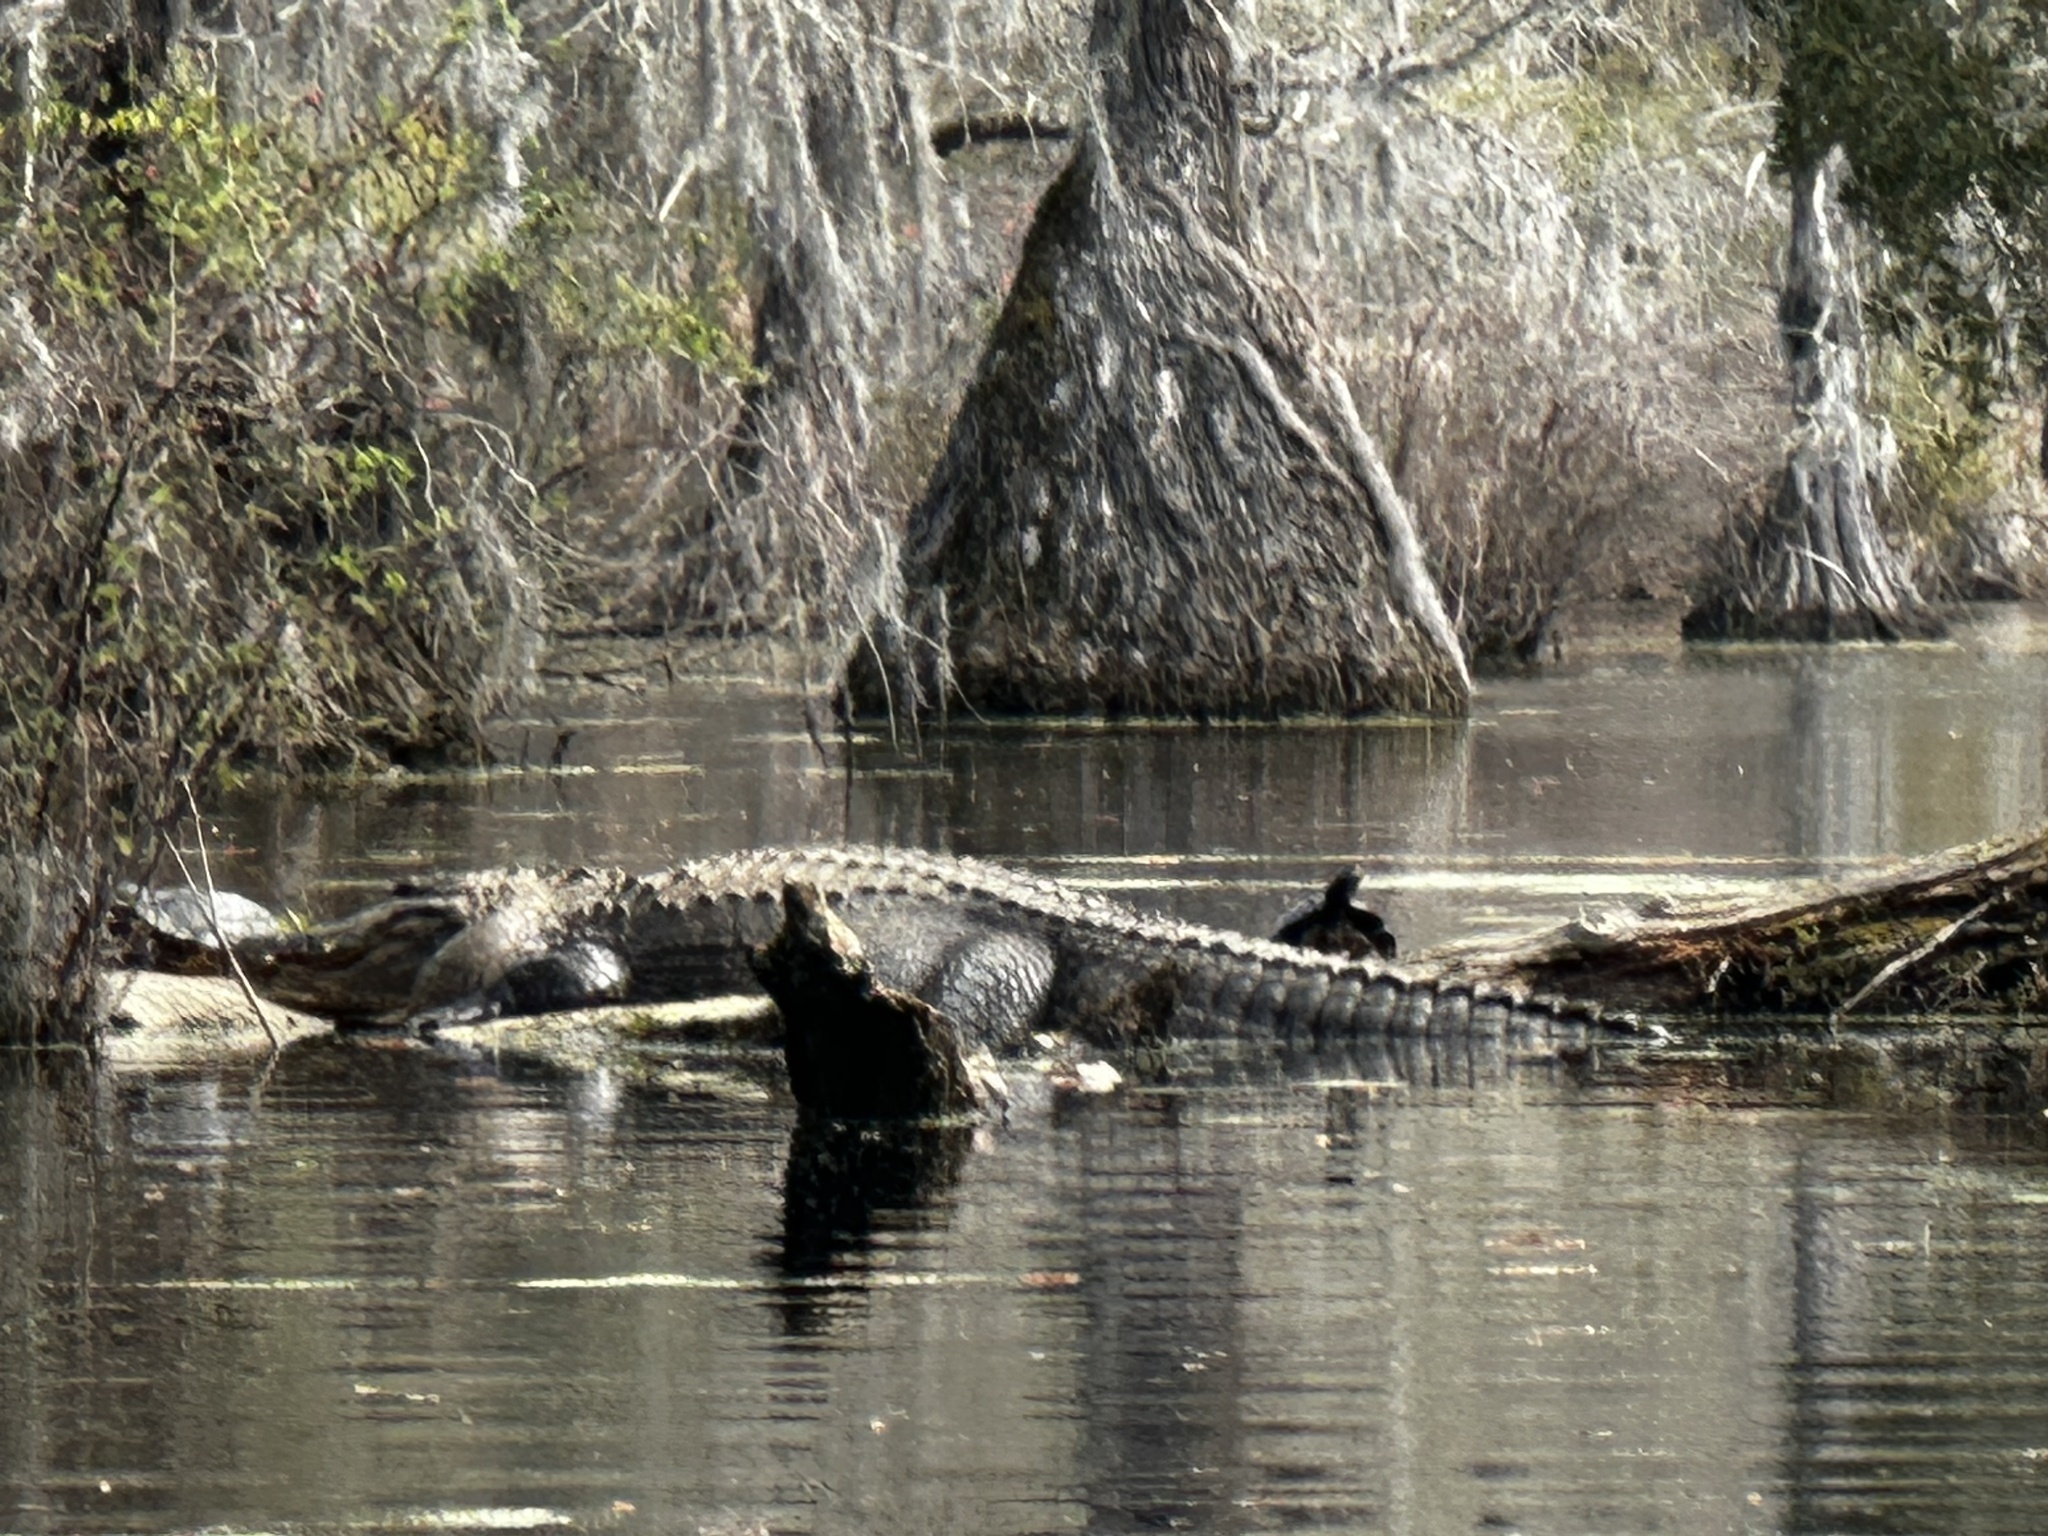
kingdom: Animalia
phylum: Chordata
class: Crocodylia
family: Alligatoridae
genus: Alligator
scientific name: Alligator mississippiensis
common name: American alligator
